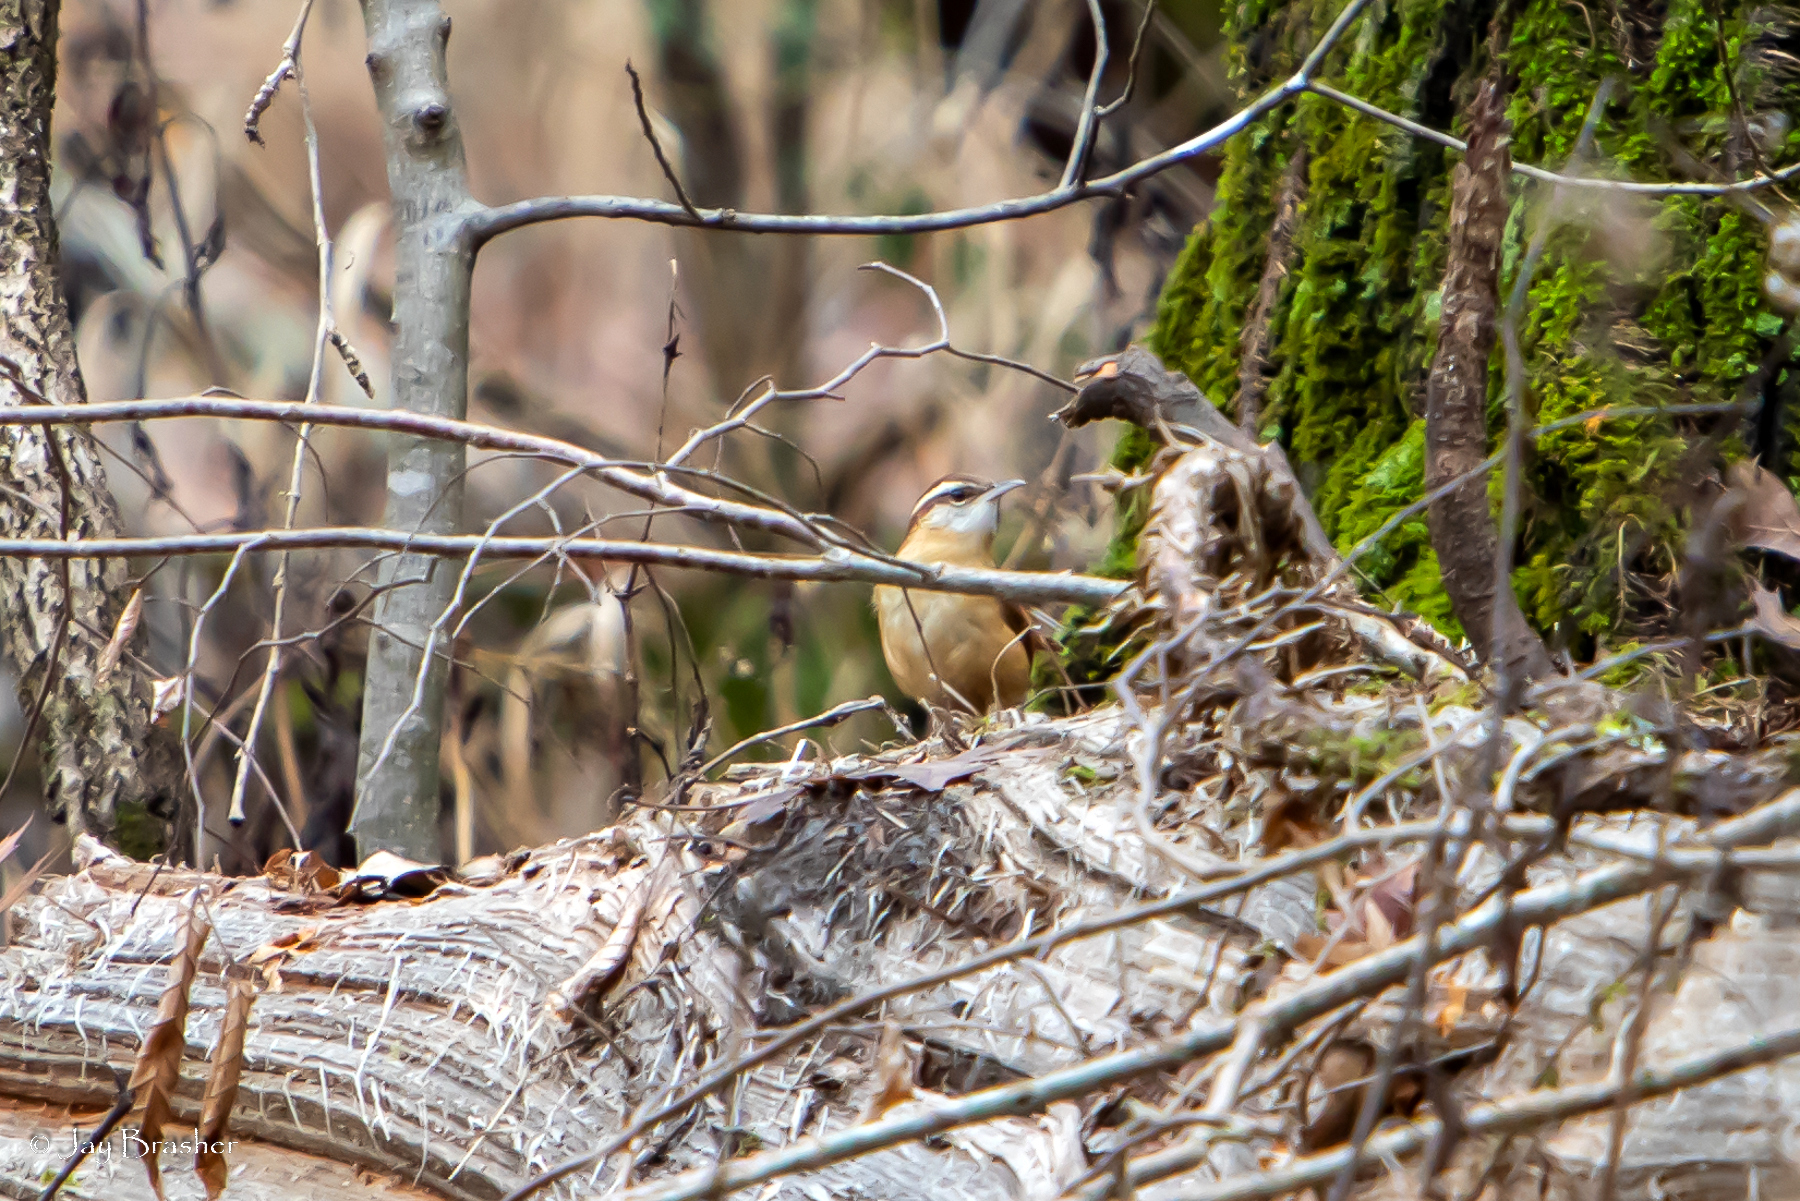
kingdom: Animalia
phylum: Chordata
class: Aves
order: Passeriformes
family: Troglodytidae
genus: Thryothorus
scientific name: Thryothorus ludovicianus
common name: Carolina wren
